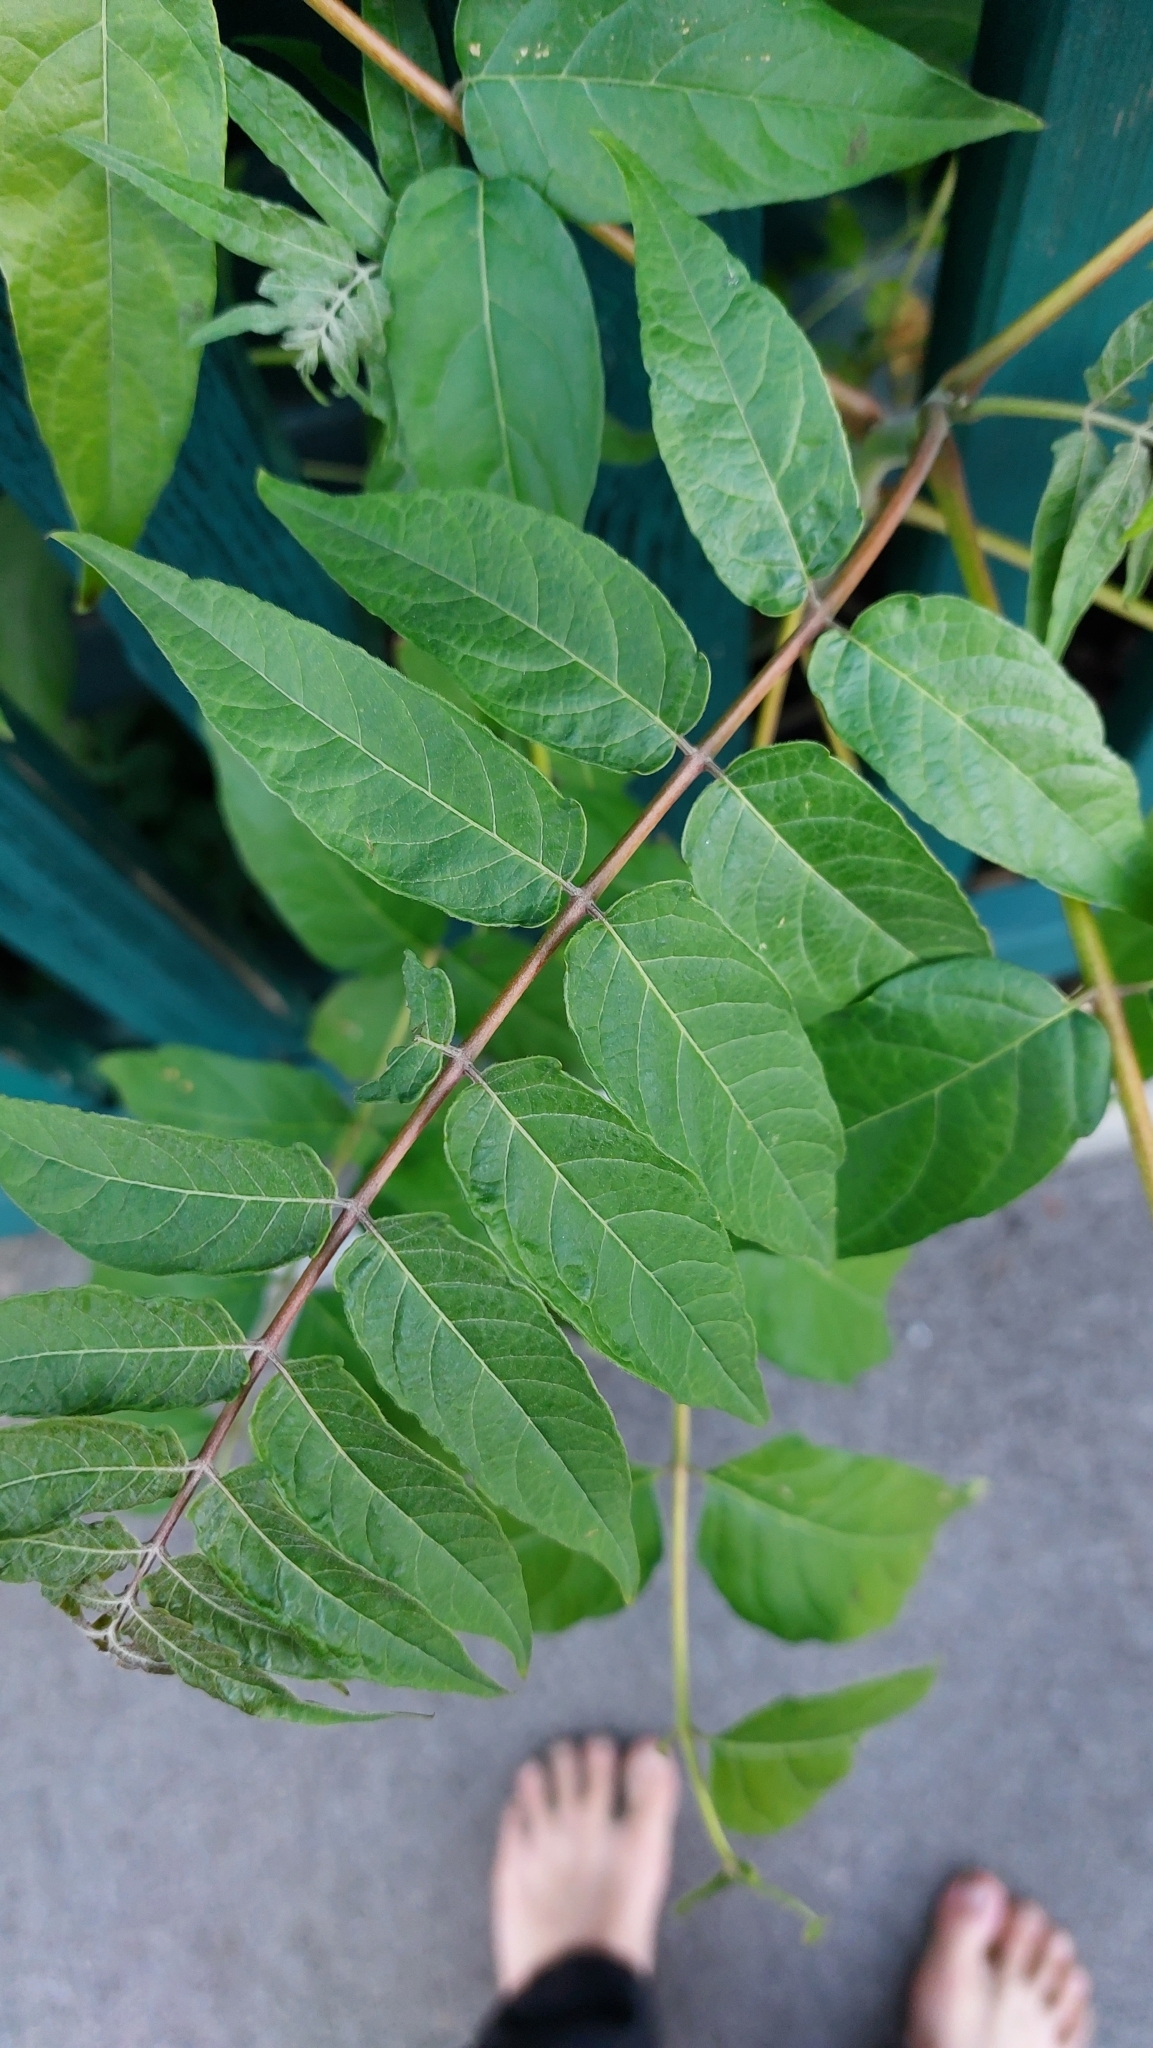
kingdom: Plantae
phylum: Tracheophyta
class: Magnoliopsida
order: Sapindales
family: Simaroubaceae
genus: Ailanthus
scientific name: Ailanthus altissima
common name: Tree-of-heaven
